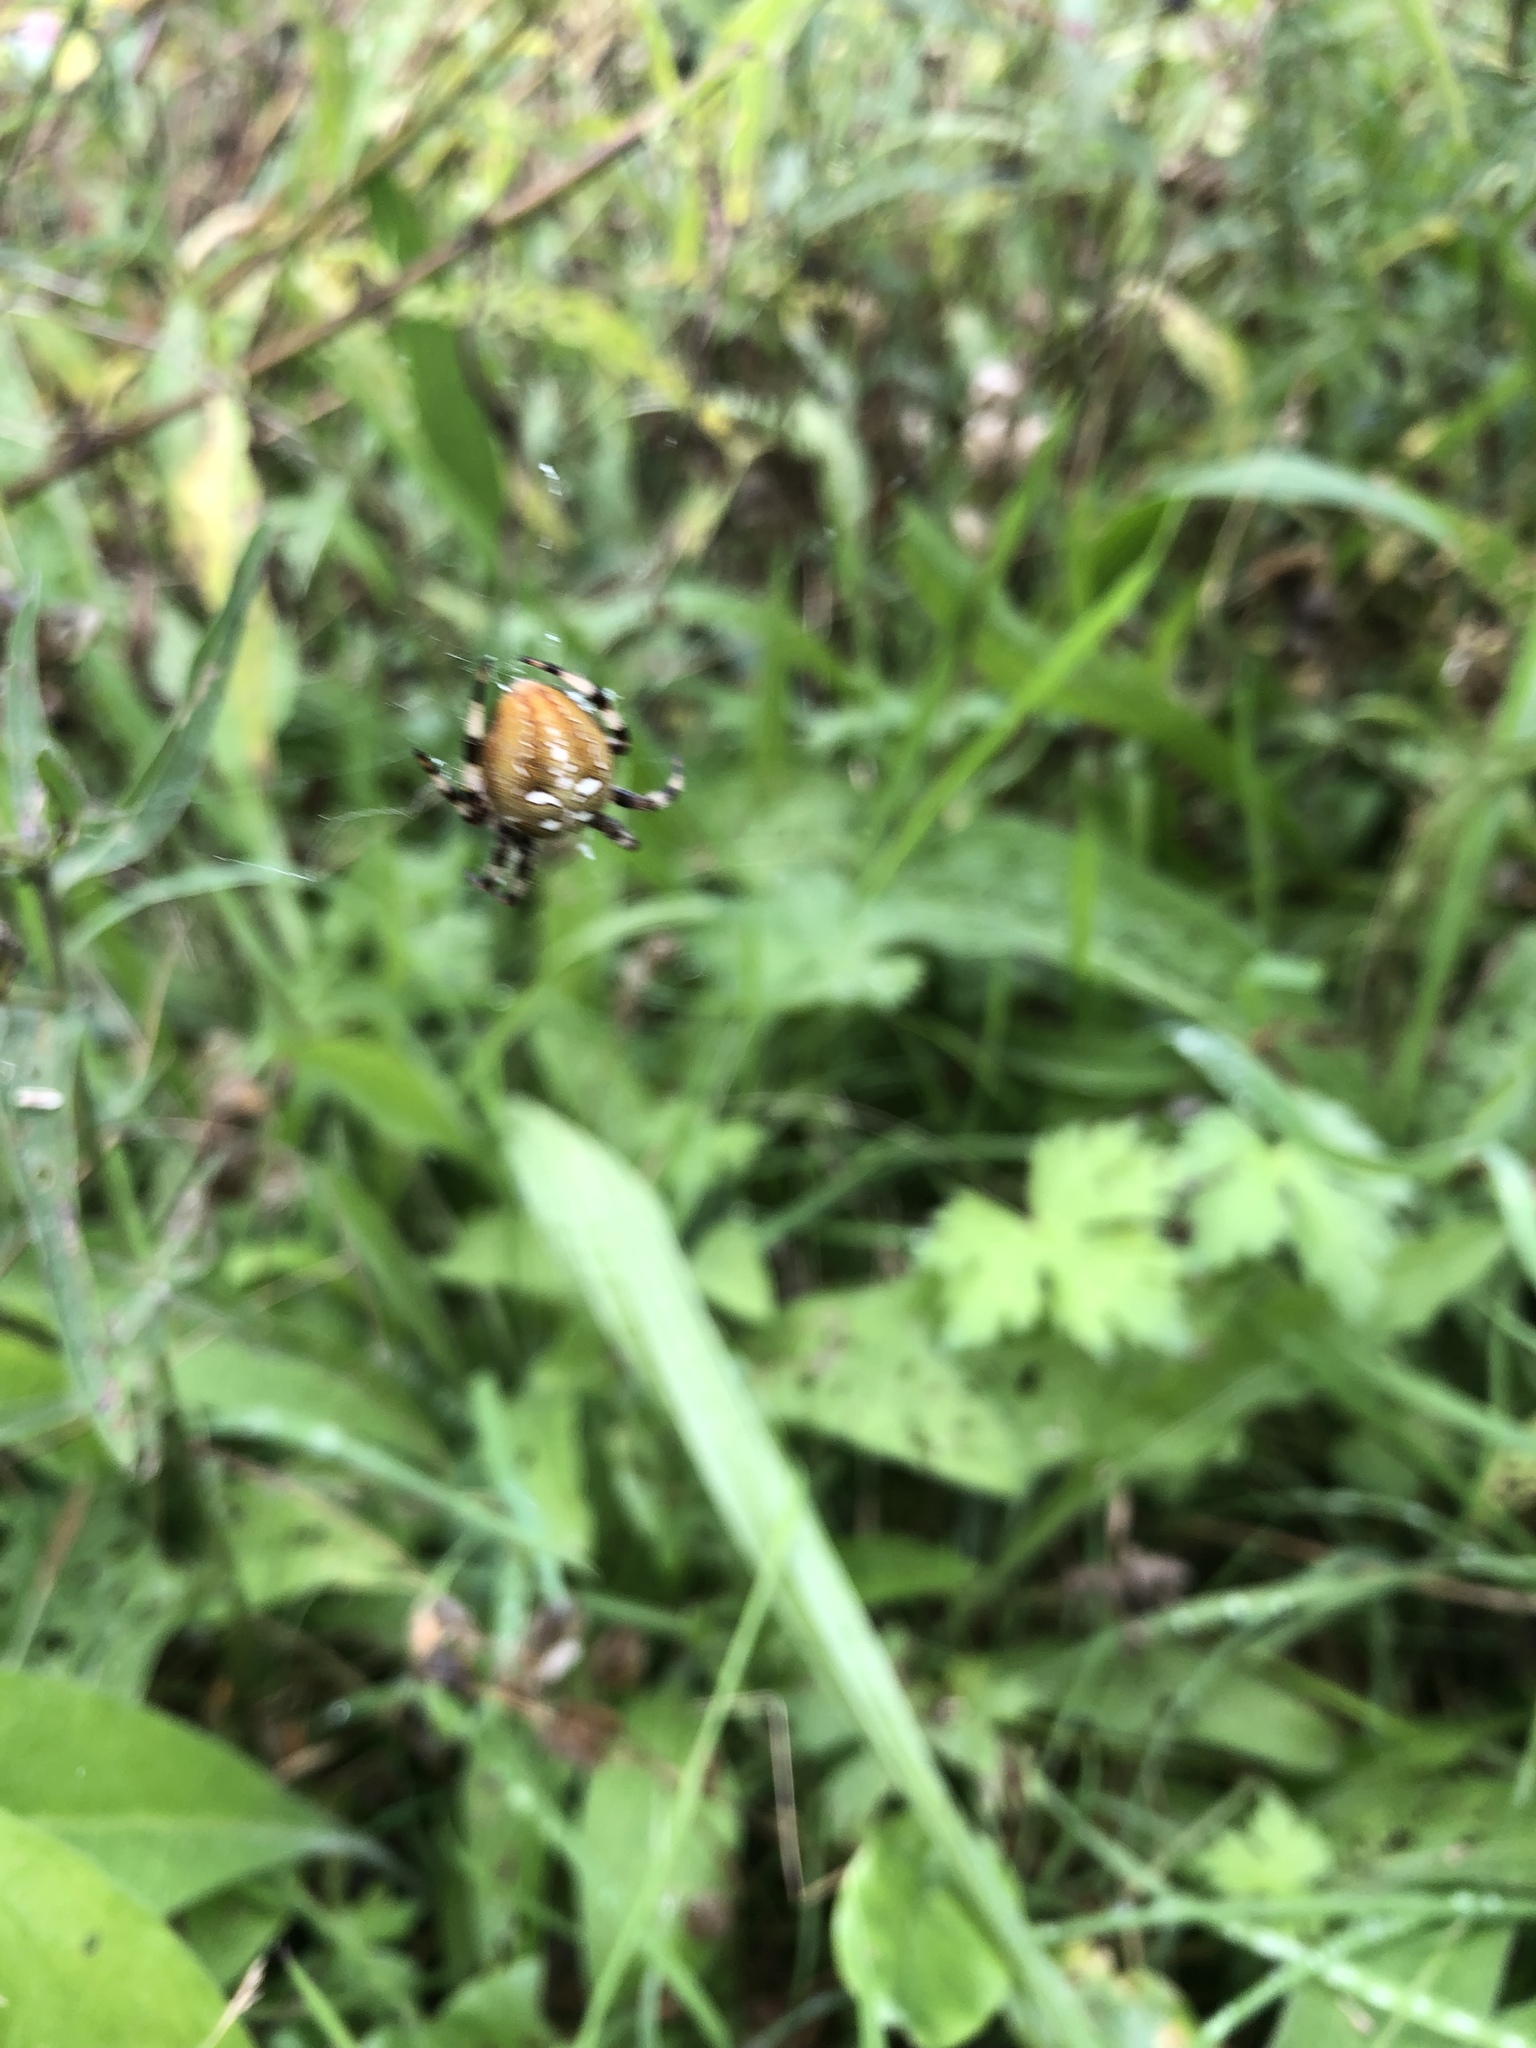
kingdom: Animalia
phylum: Arthropoda
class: Arachnida
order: Araneae
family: Araneidae
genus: Araneus
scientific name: Araneus quadratus
